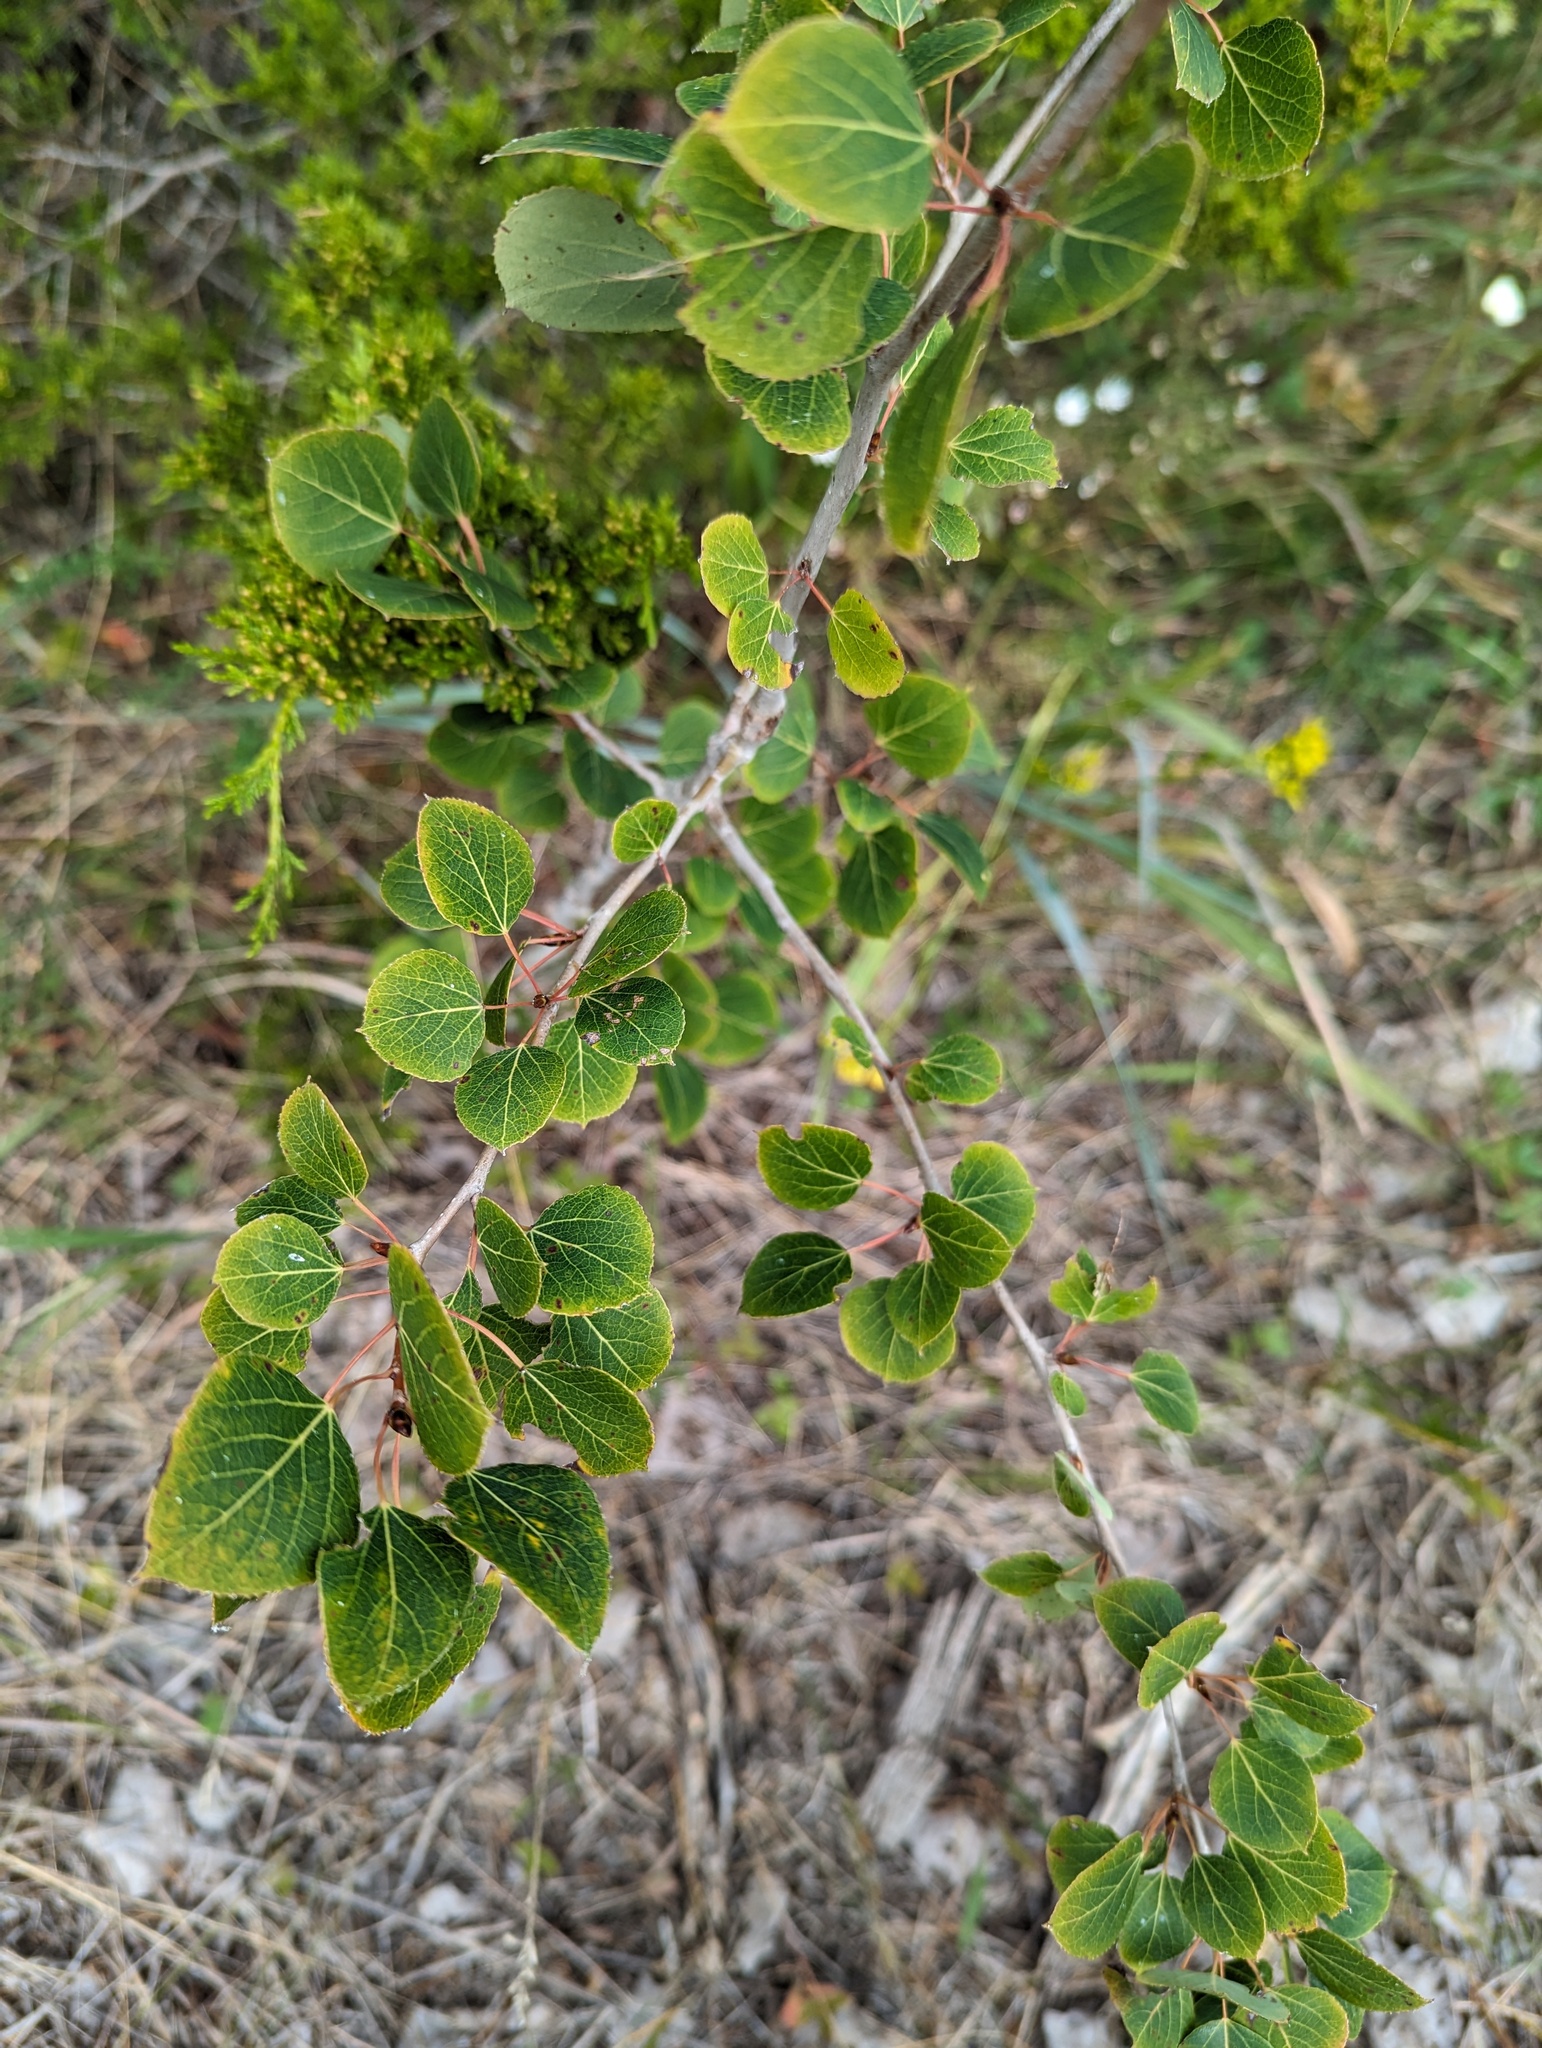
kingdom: Plantae
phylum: Tracheophyta
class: Magnoliopsida
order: Malpighiales
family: Salicaceae
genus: Populus
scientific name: Populus tremuloides
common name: Quaking aspen
